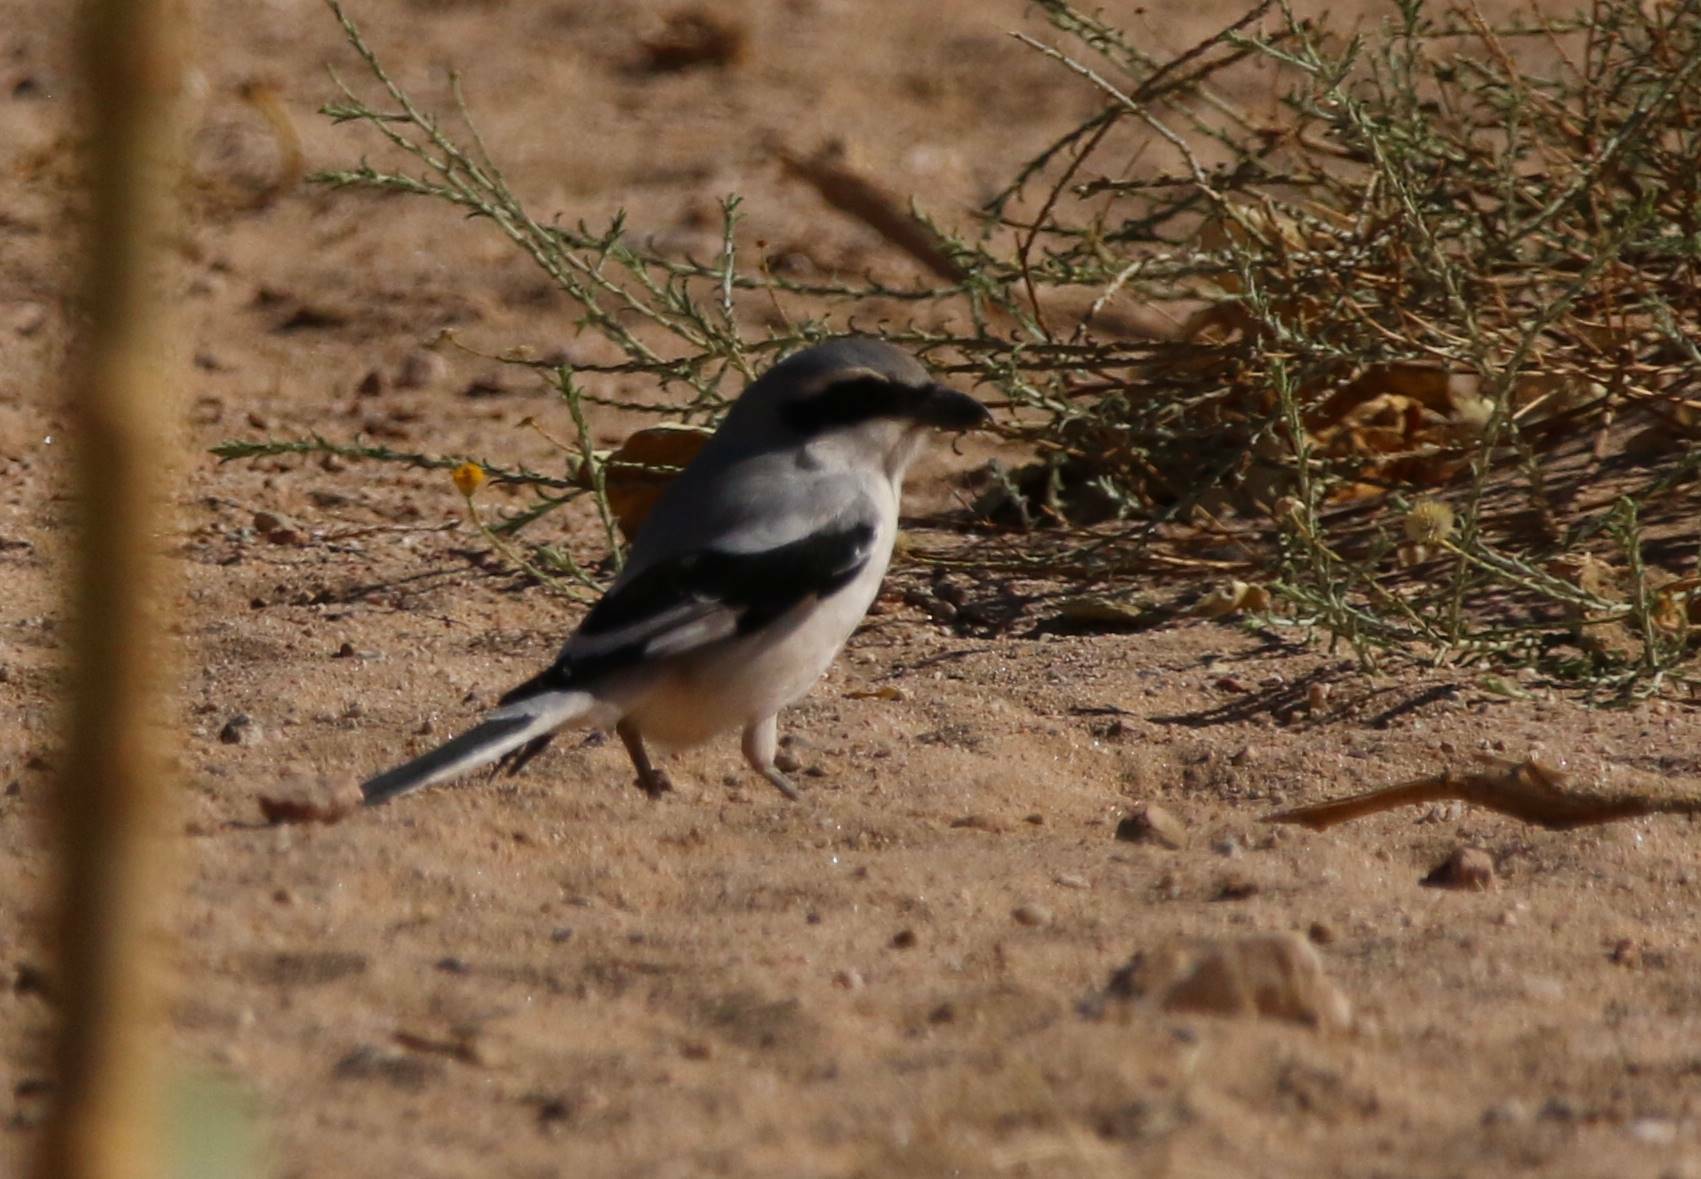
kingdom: Animalia
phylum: Chordata
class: Aves
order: Passeriformes
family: Laniidae
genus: Lanius
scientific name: Lanius excubitor
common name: Great grey shrike
